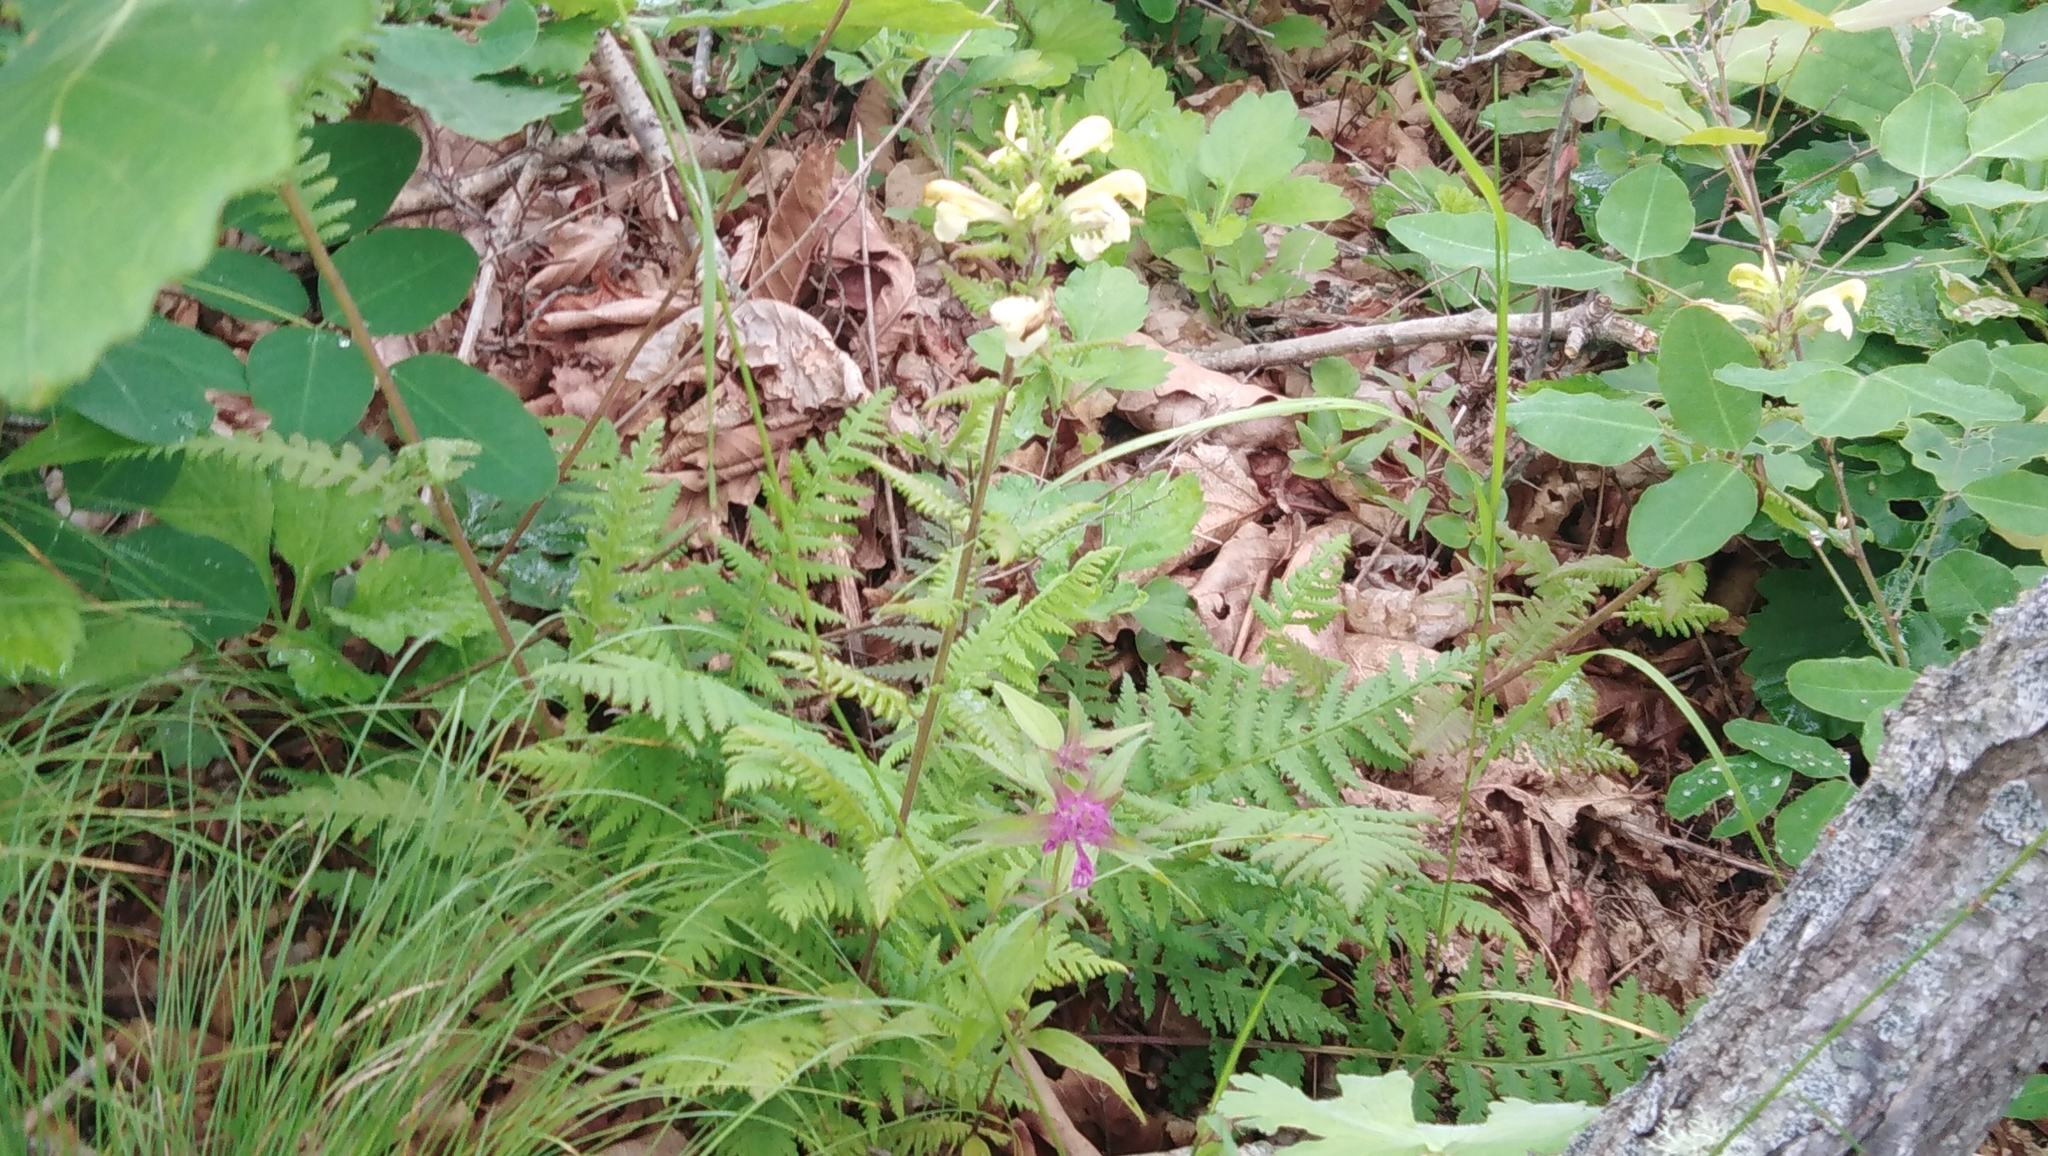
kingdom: Plantae
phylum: Tracheophyta
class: Magnoliopsida
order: Lamiales
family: Orobanchaceae
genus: Pedicularis
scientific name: Pedicularis mandshurica
